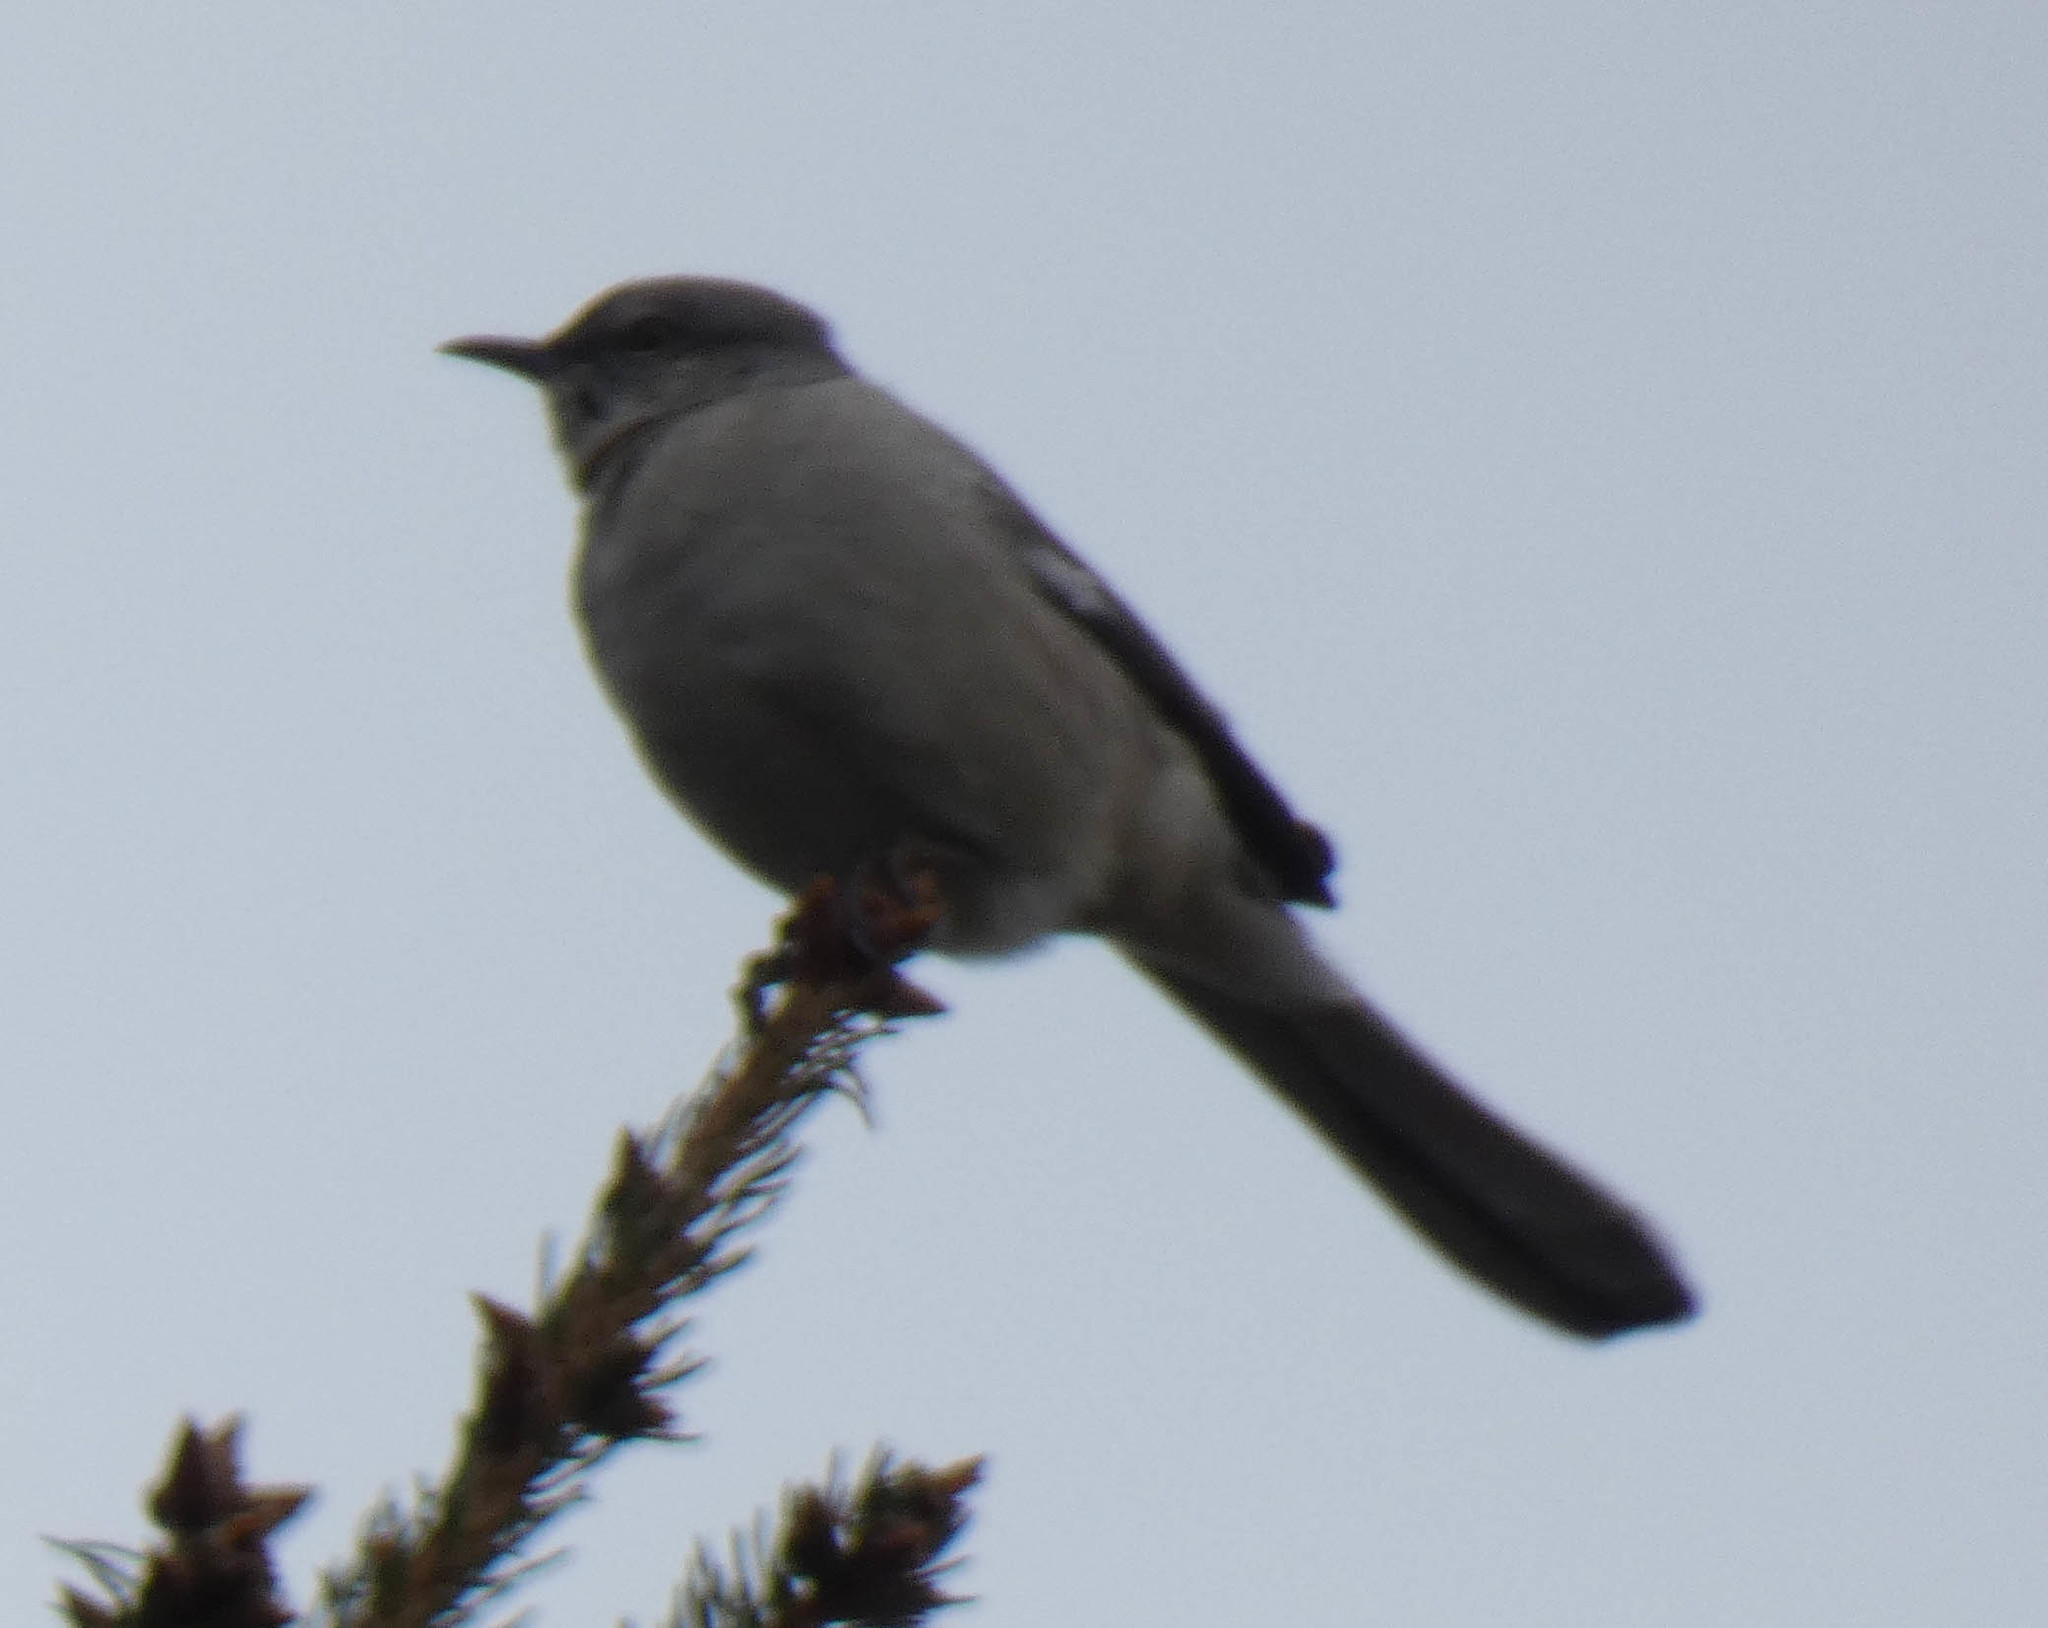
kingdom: Animalia
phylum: Chordata
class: Aves
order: Passeriformes
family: Mimidae
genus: Mimus
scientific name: Mimus polyglottos
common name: Northern mockingbird
